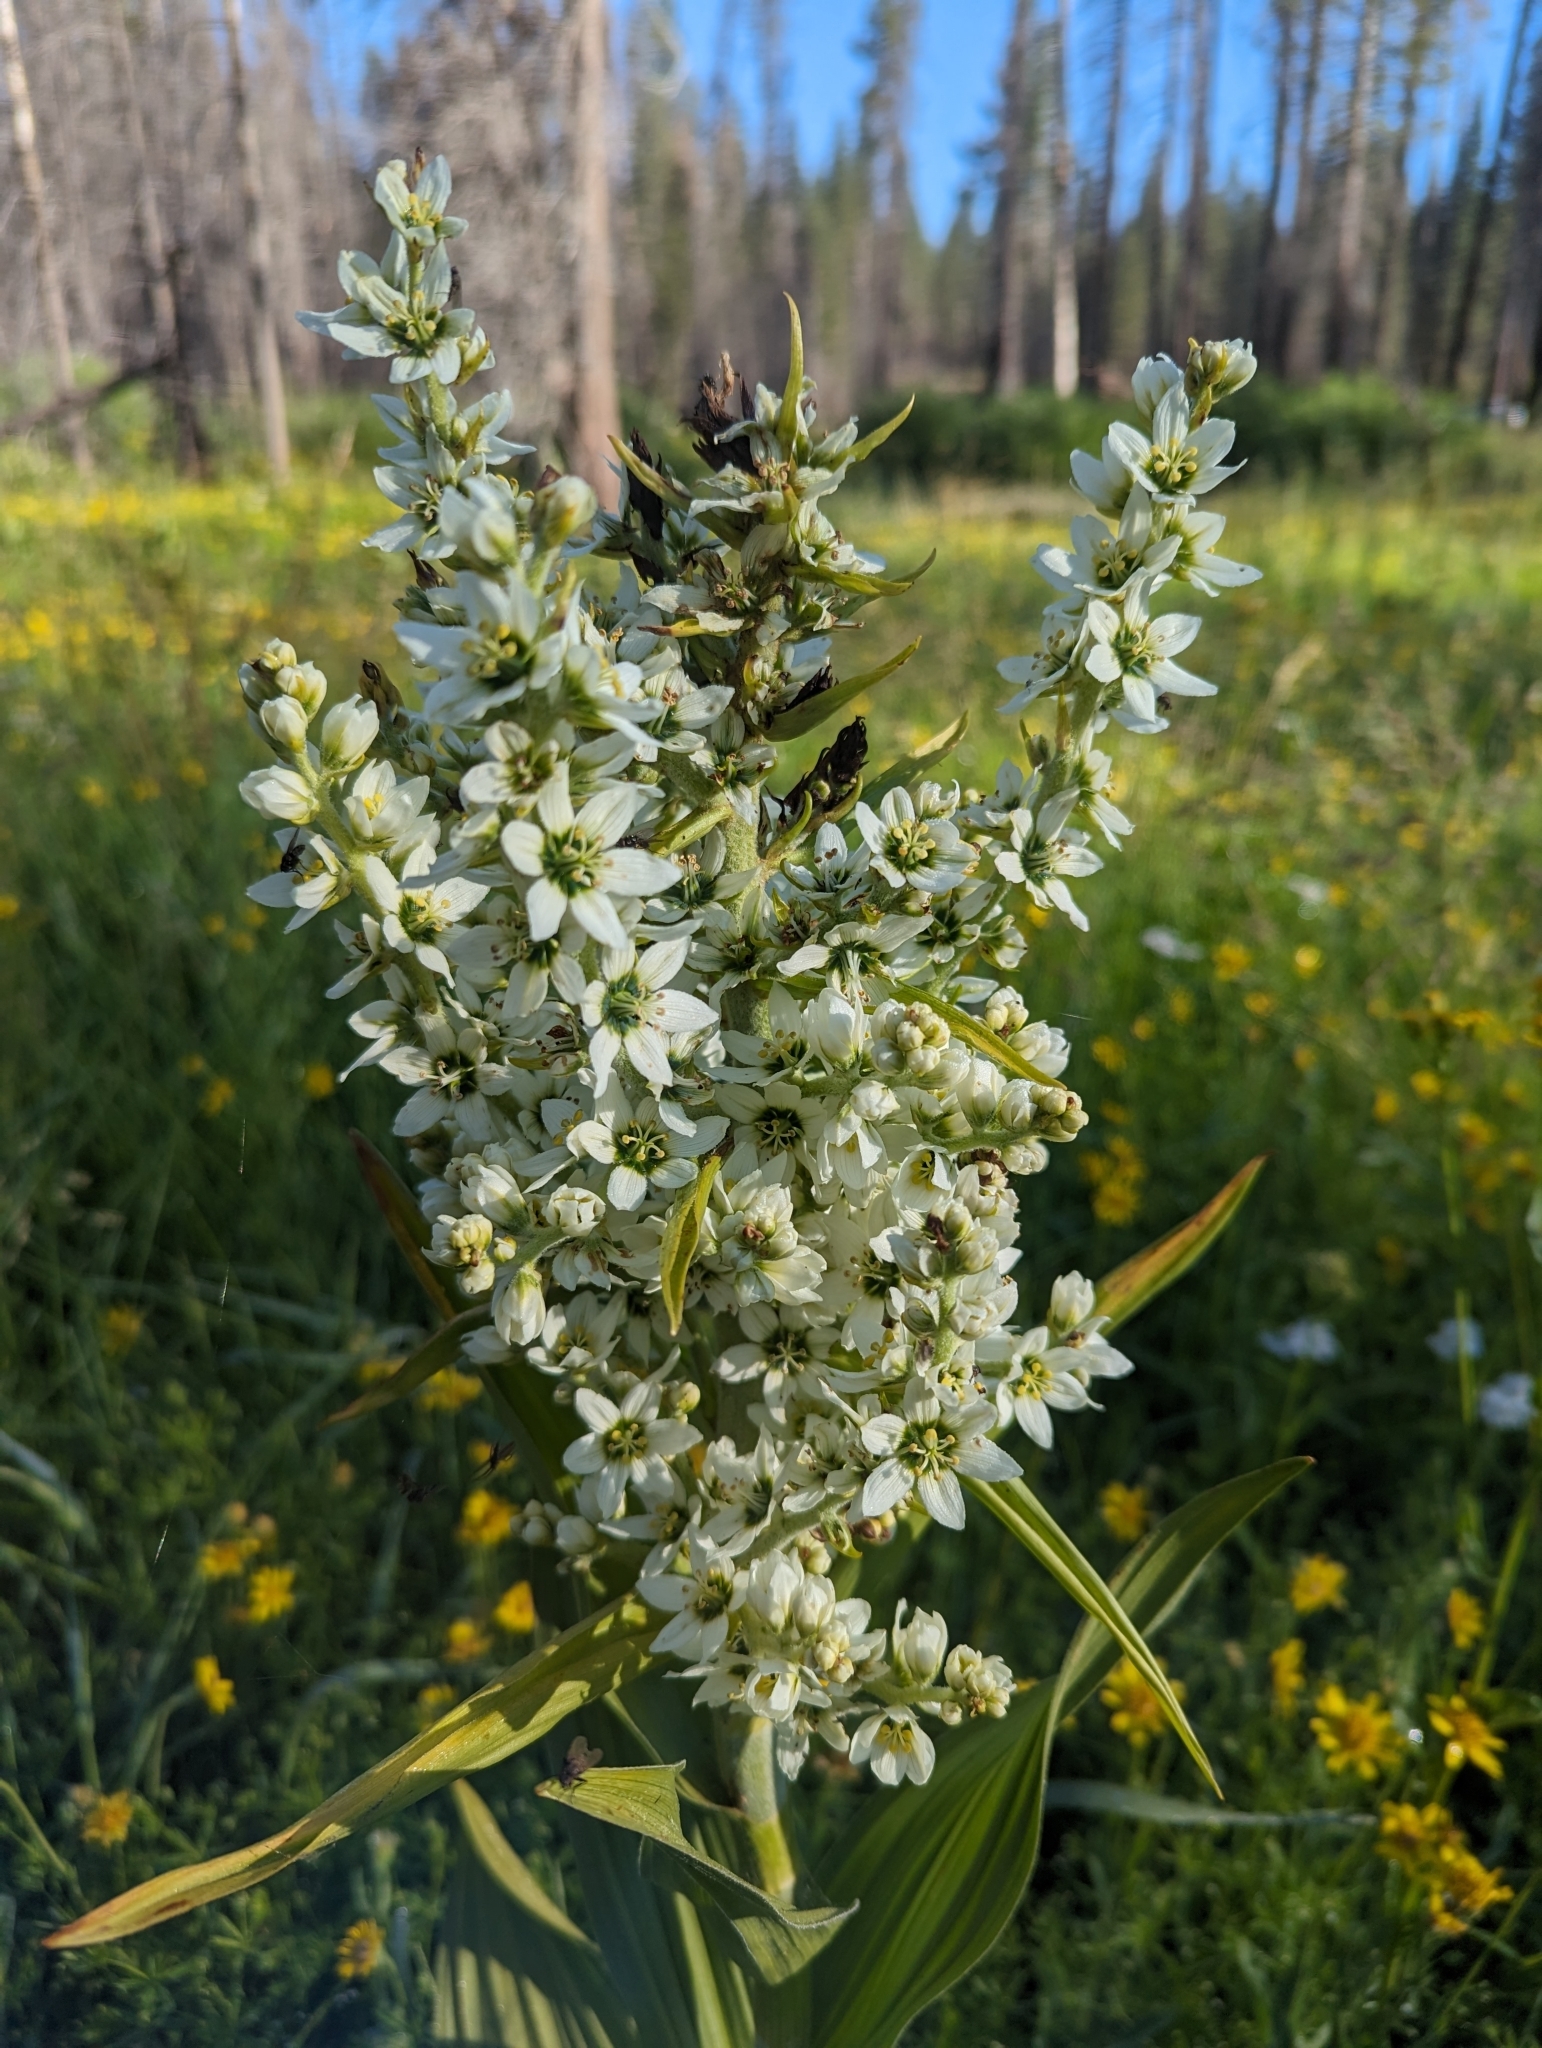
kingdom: Plantae
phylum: Tracheophyta
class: Liliopsida
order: Liliales
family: Melanthiaceae
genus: Veratrum
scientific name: Veratrum californicum
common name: California veratrum
